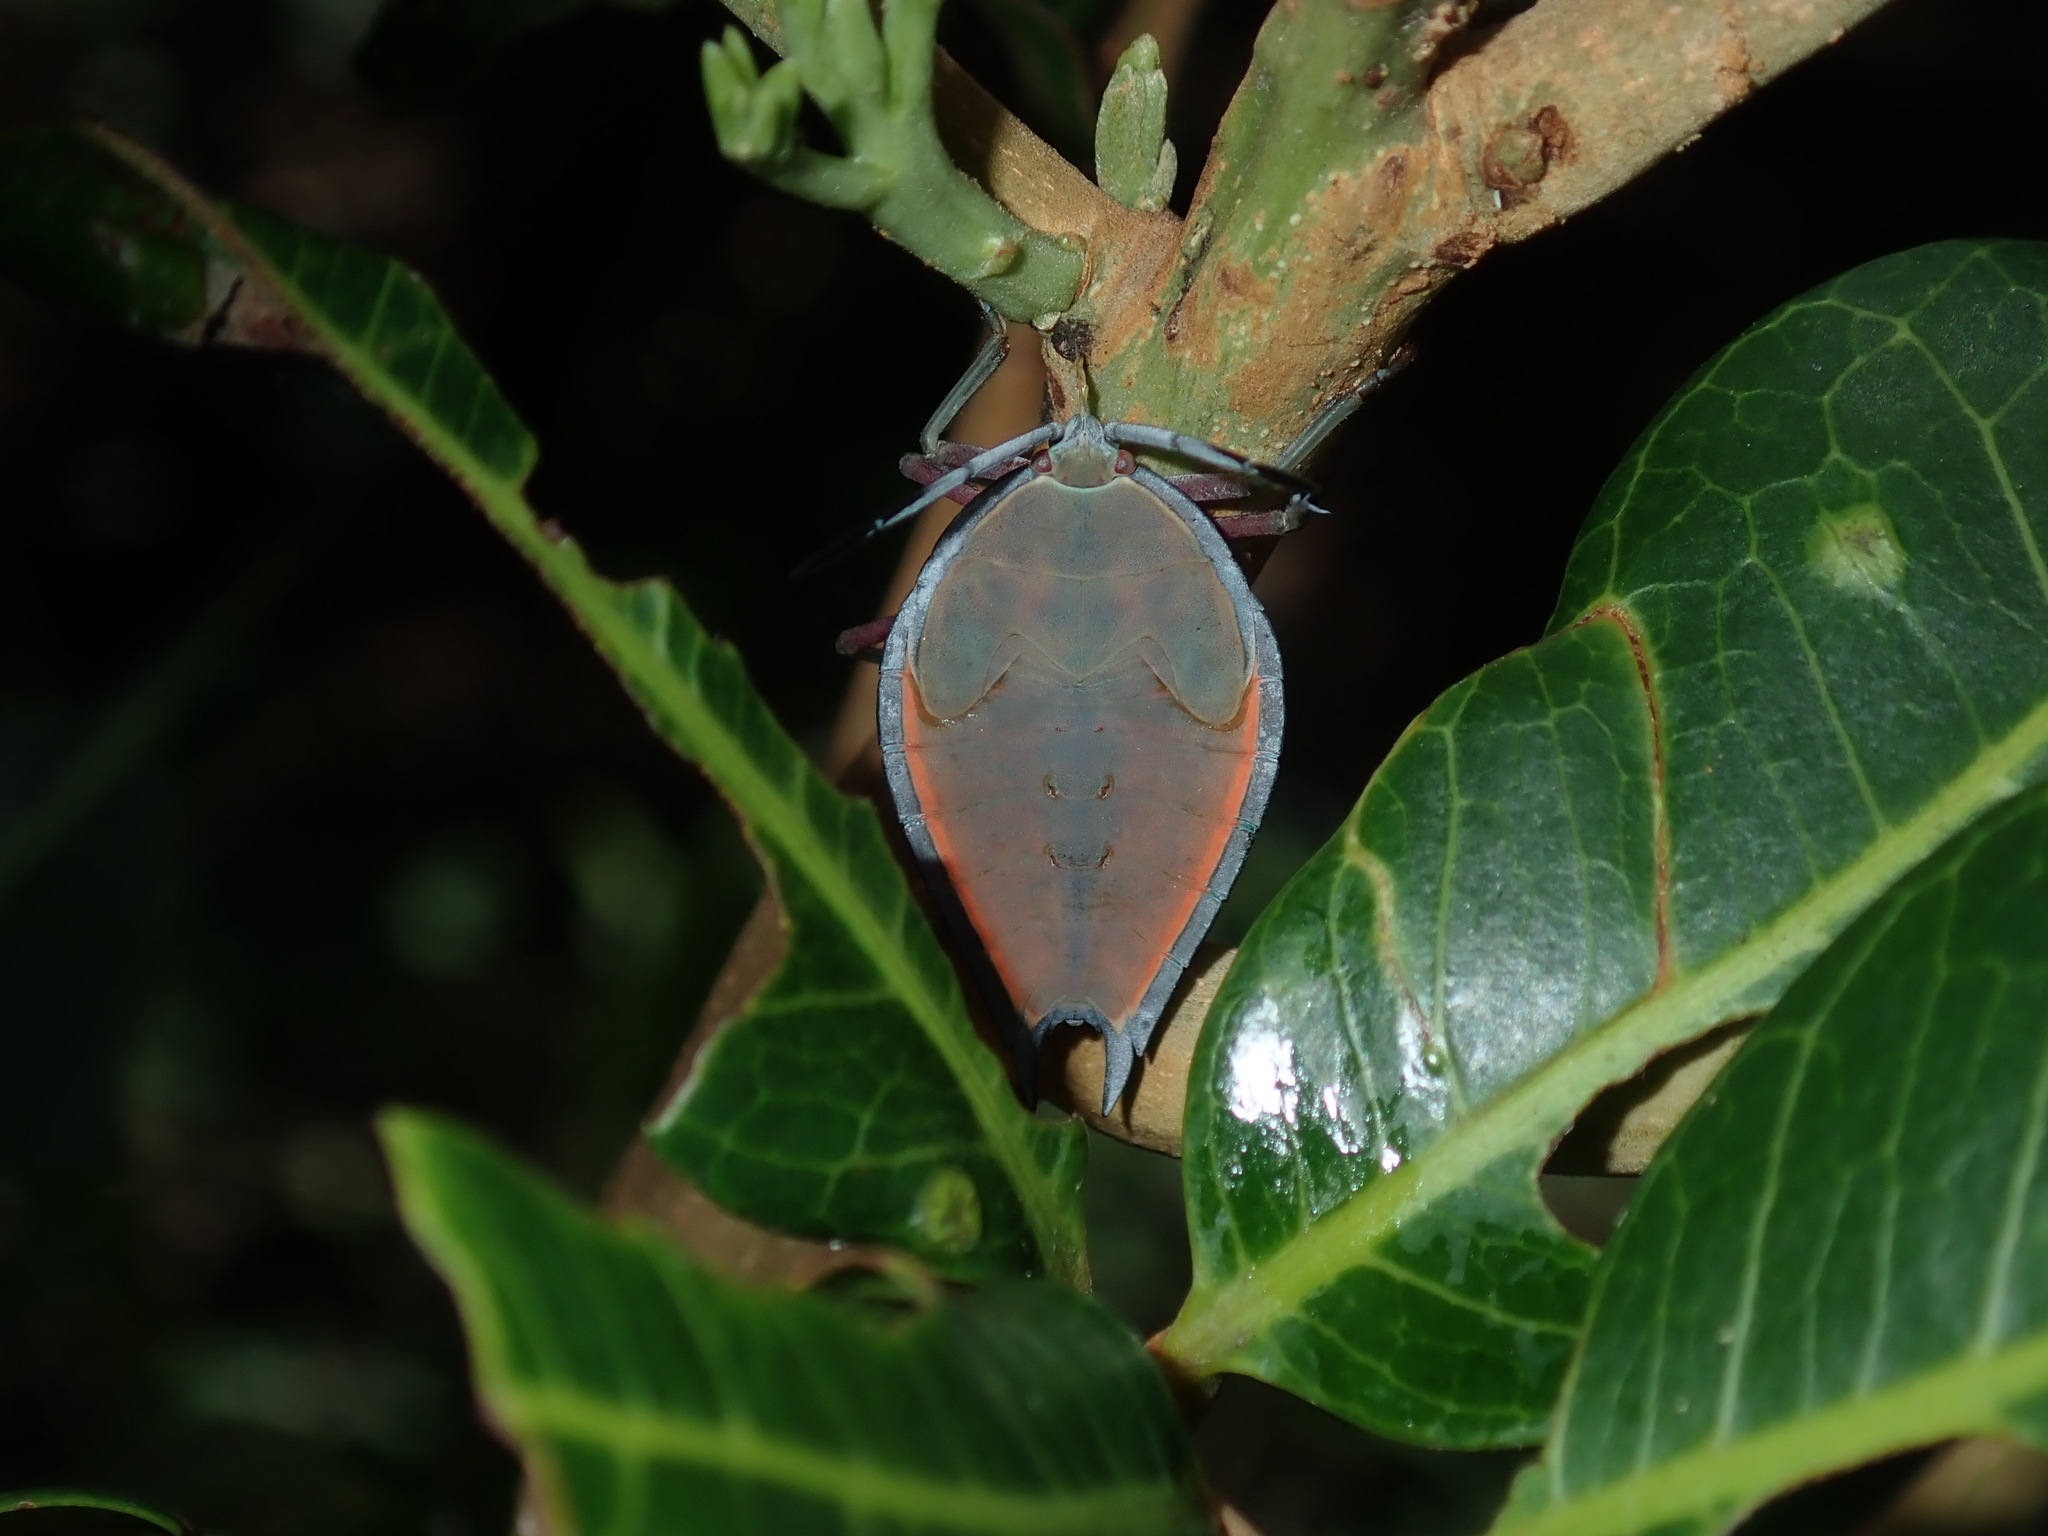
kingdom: Animalia
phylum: Arthropoda
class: Insecta
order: Hemiptera
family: Tessaratomidae
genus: Lyramorpha
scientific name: Lyramorpha rosea
